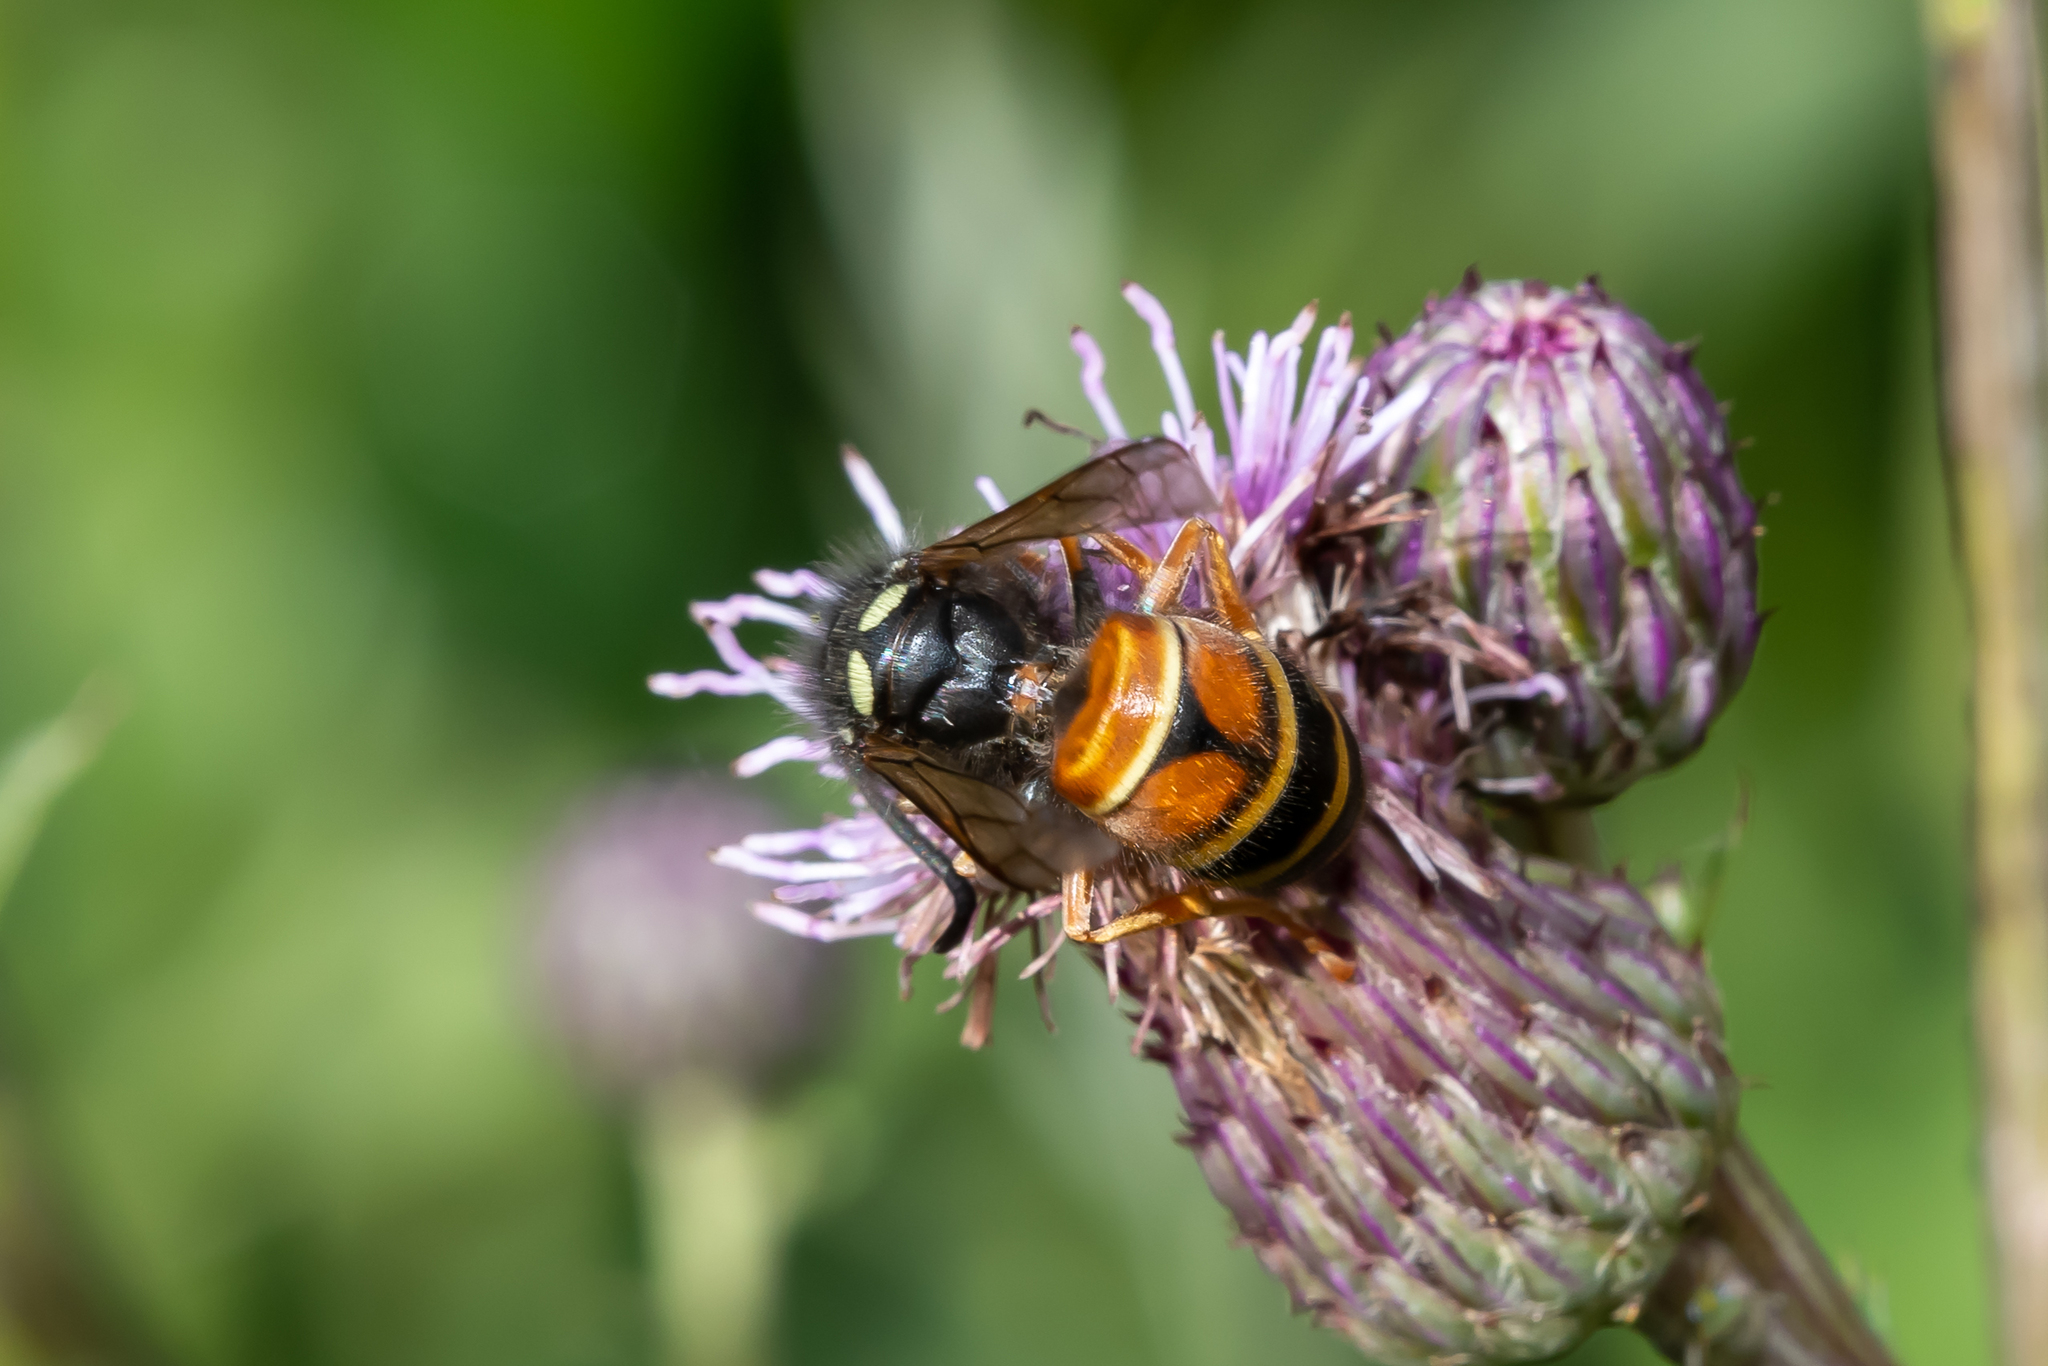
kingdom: Animalia
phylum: Arthropoda
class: Insecta
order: Hymenoptera
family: Vespidae
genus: Vespula
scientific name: Vespula rufa
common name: Red wasp
